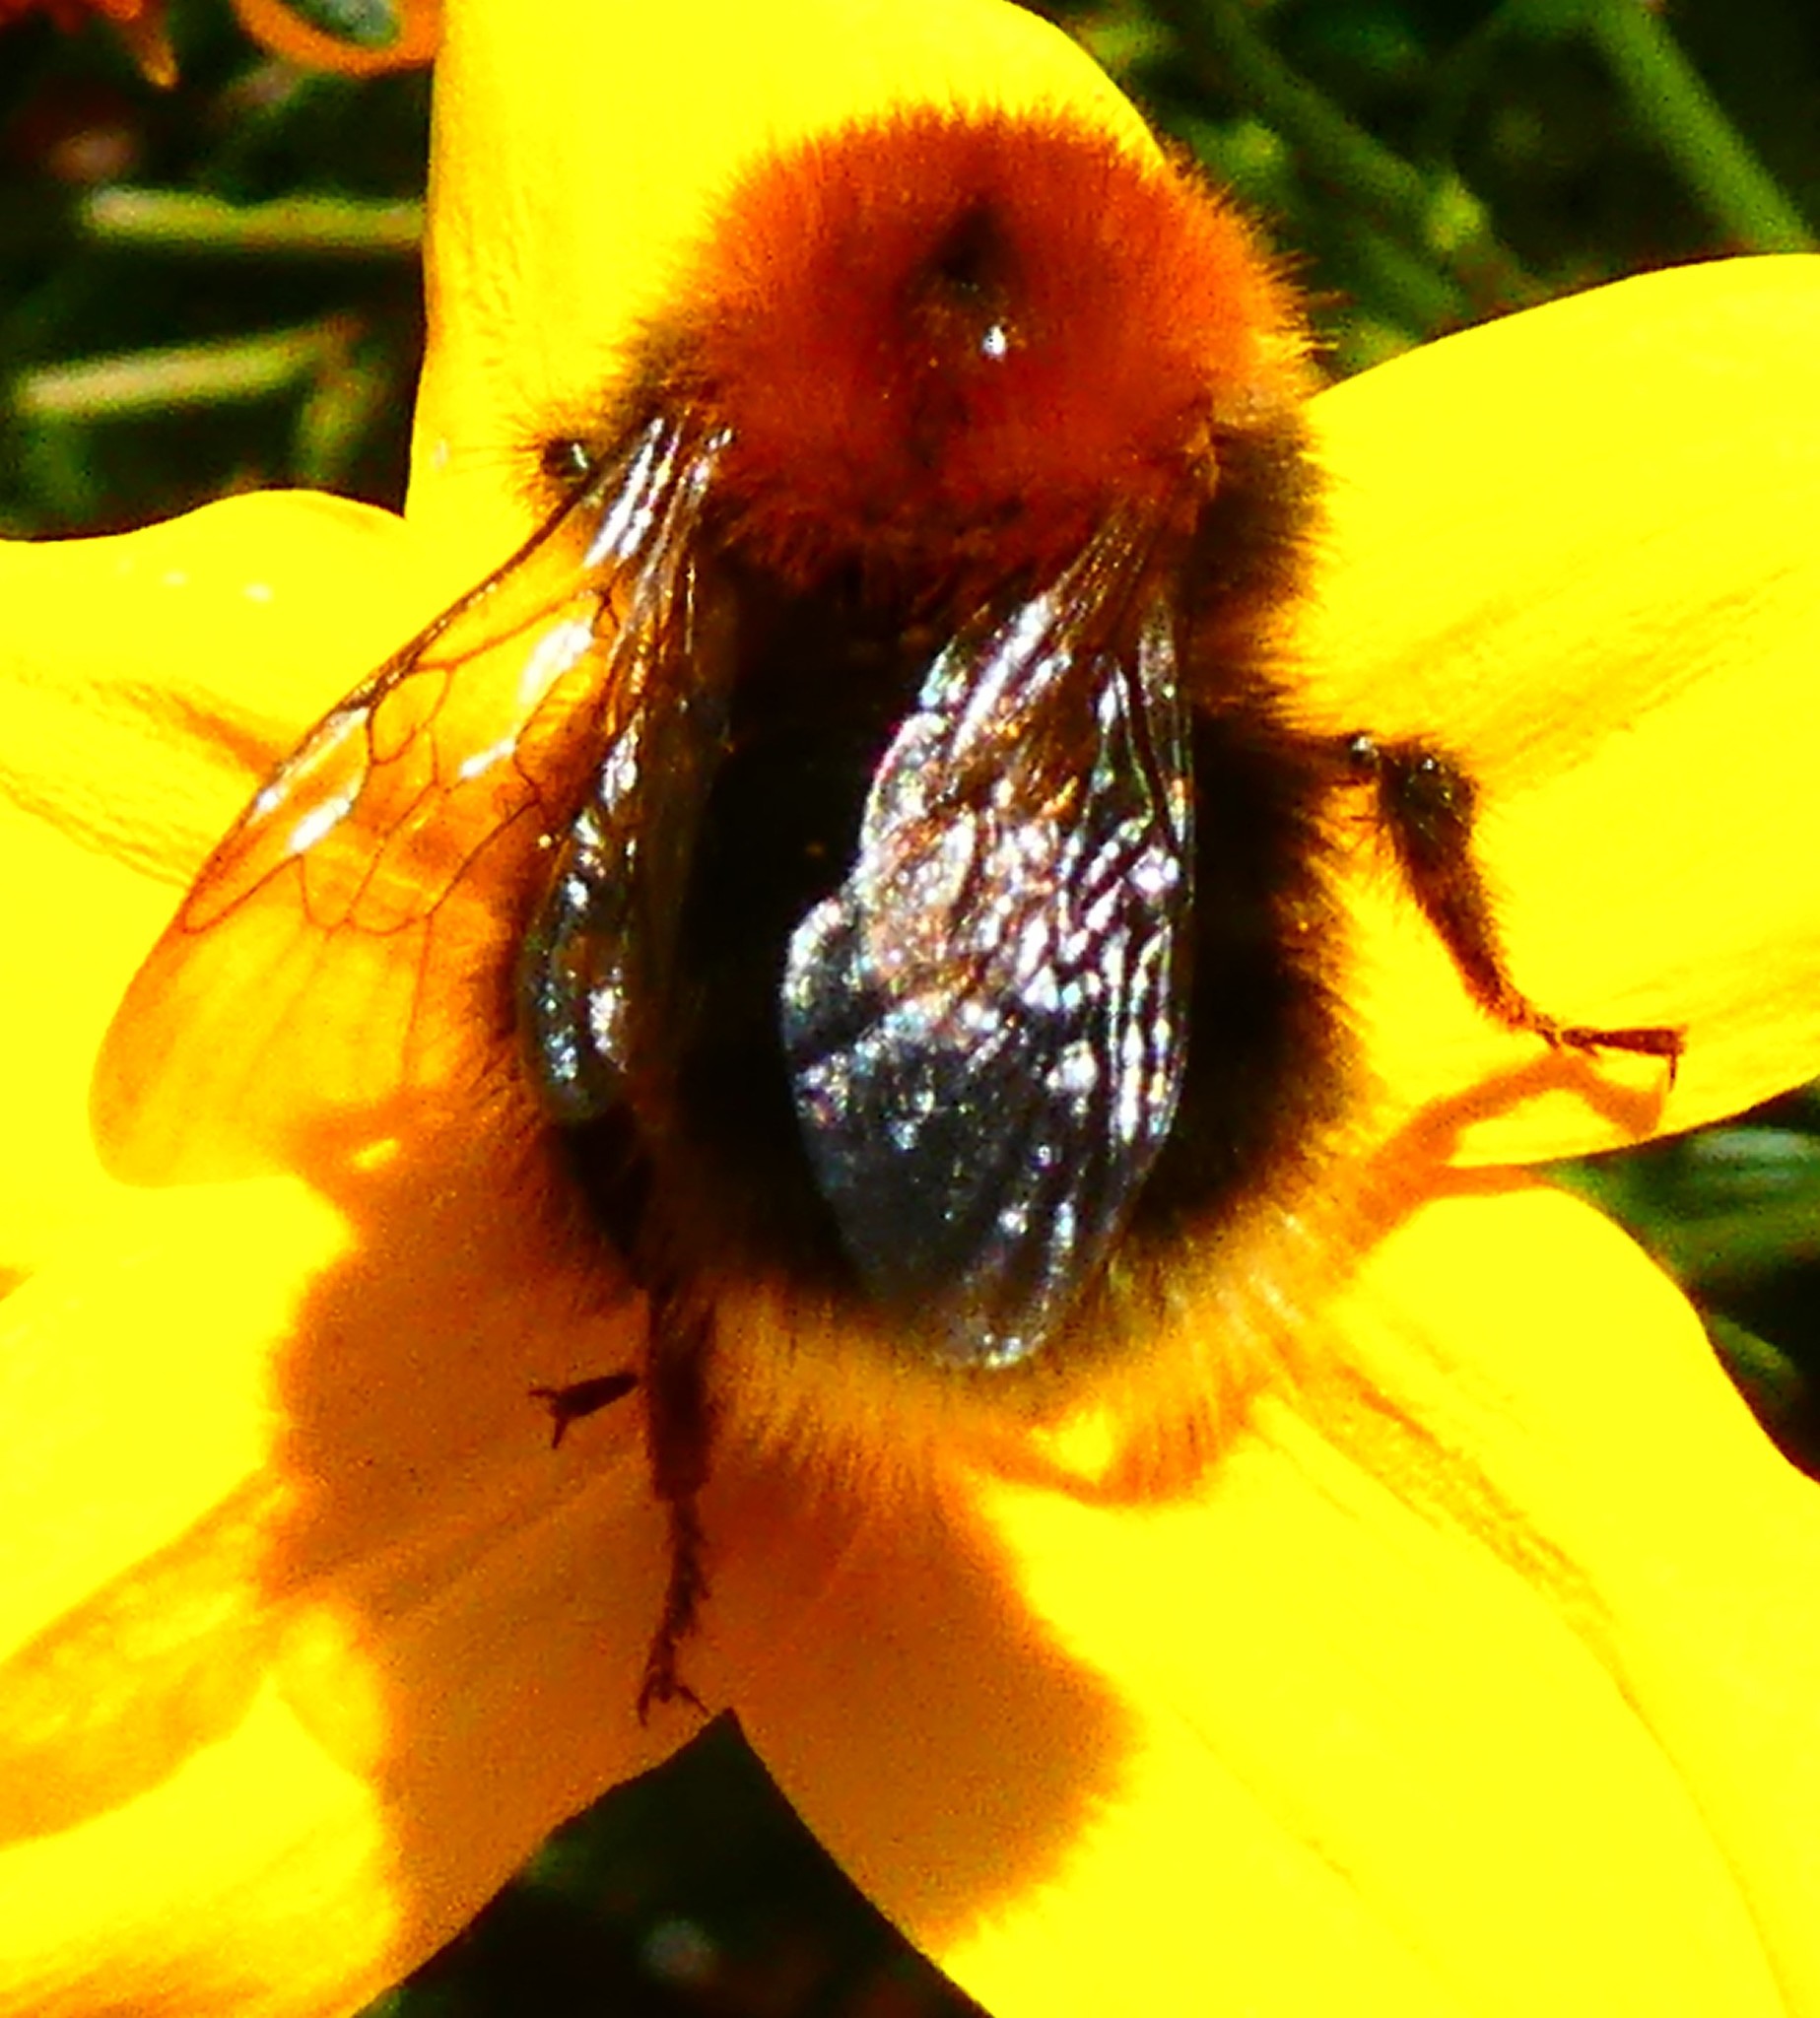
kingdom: Animalia
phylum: Arthropoda
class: Insecta
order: Hymenoptera
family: Apidae
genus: Bombus
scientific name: Bombus hypnorum
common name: New garden bumblebee
